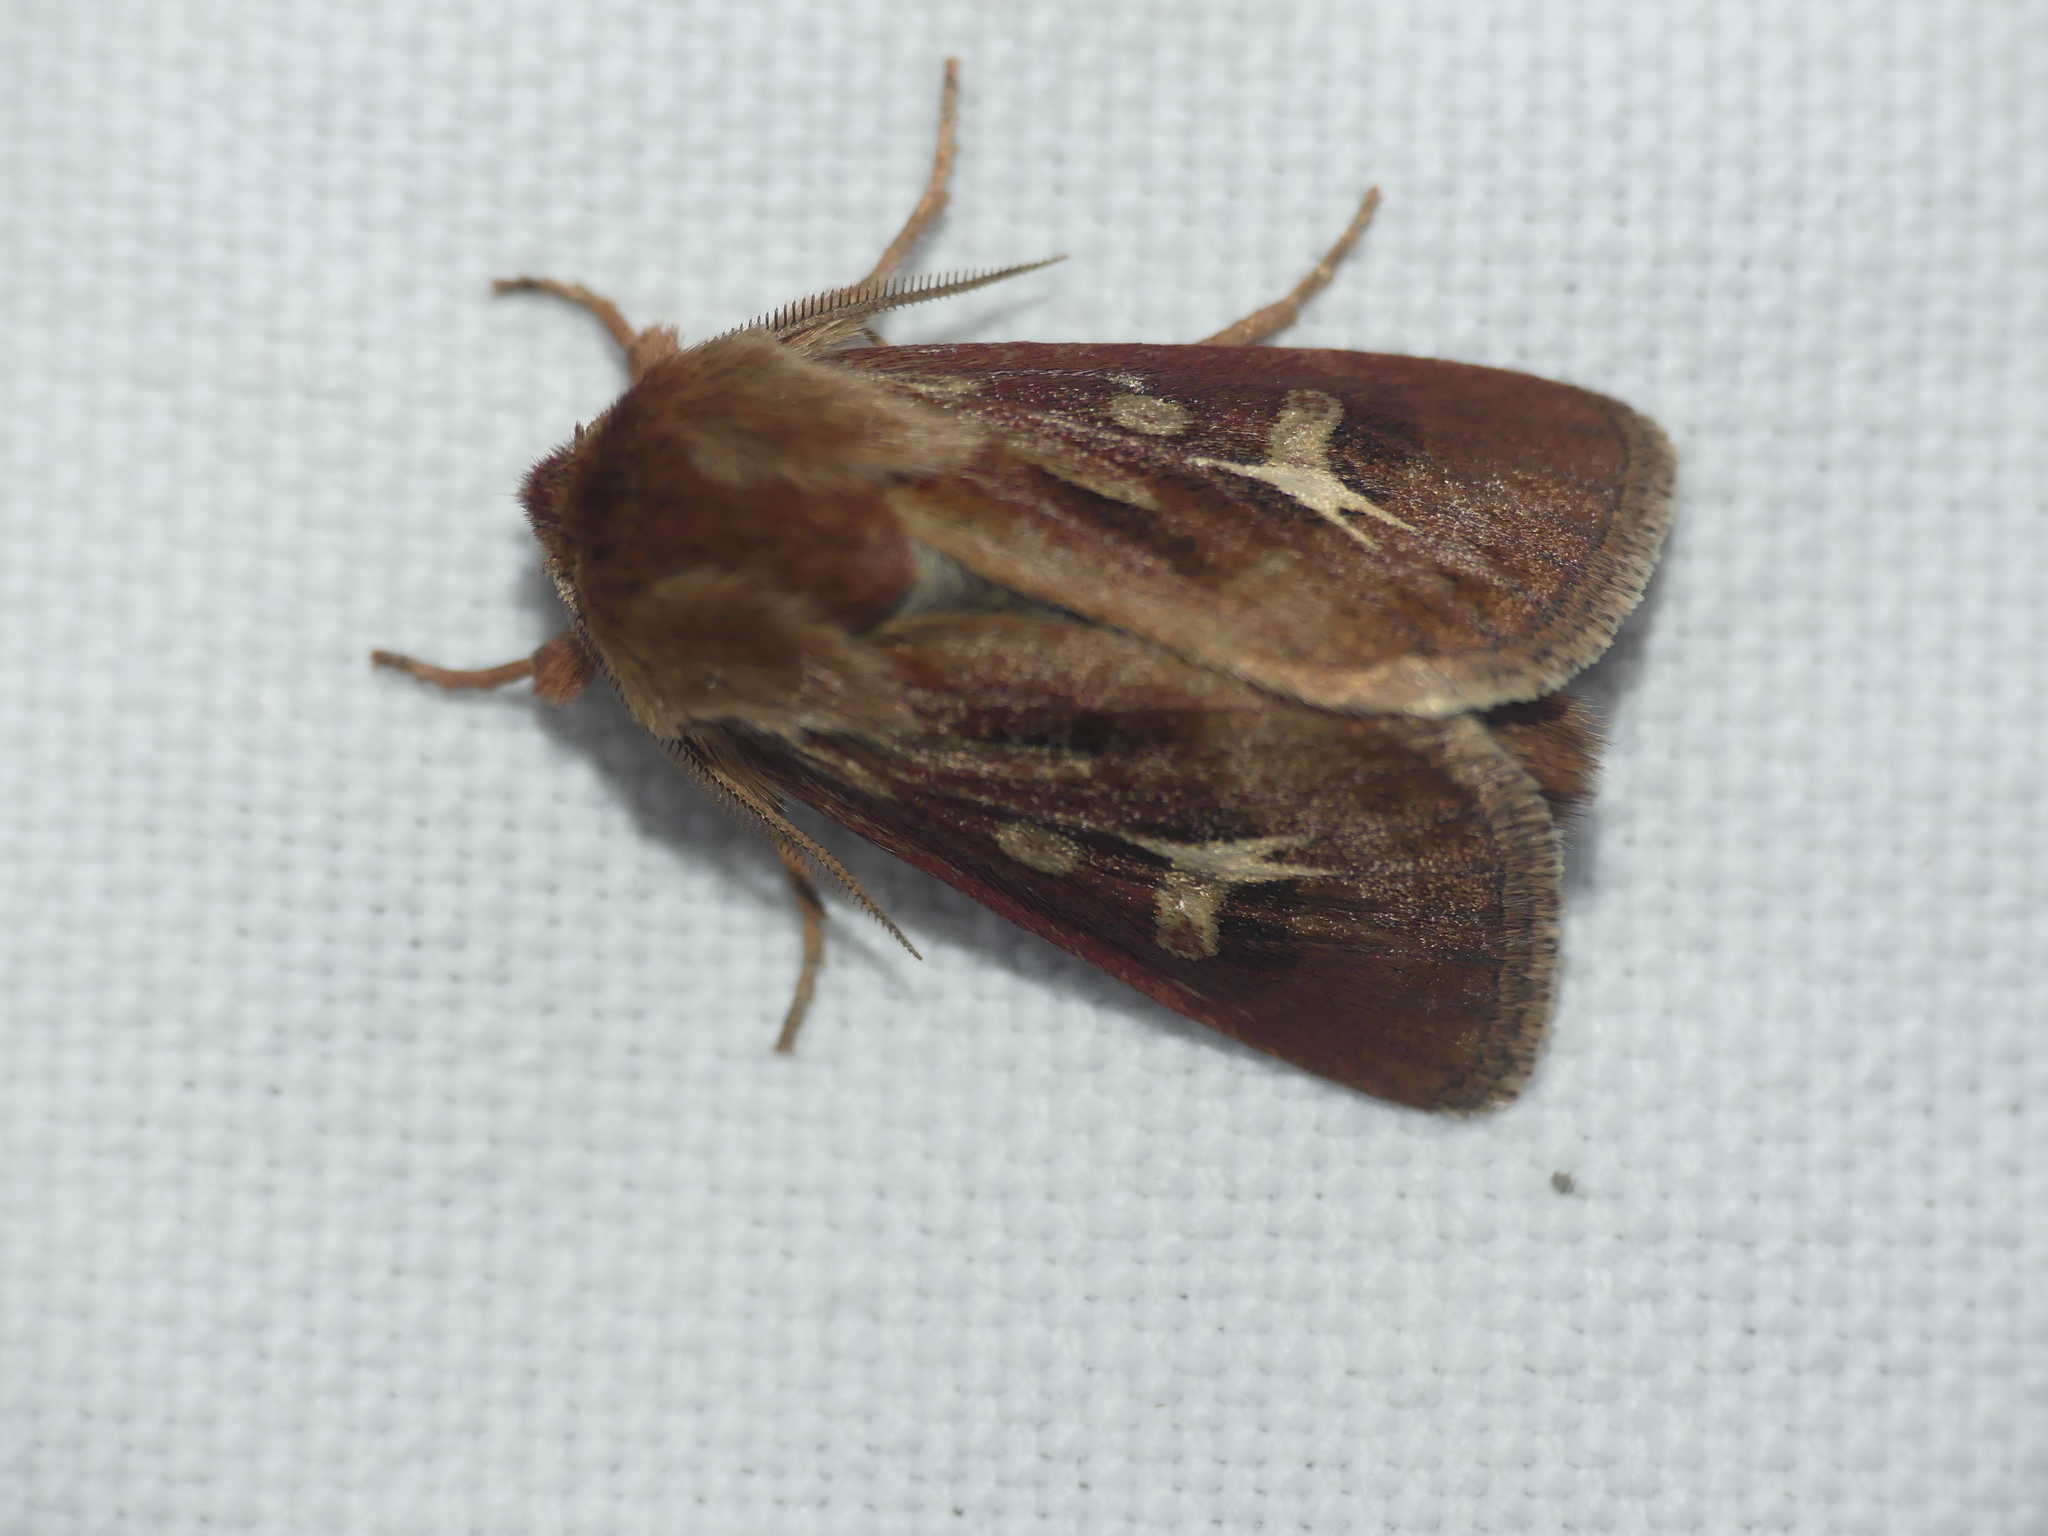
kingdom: Animalia
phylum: Arthropoda
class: Insecta
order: Lepidoptera
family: Noctuidae
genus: Cerapteryx
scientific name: Cerapteryx graminis
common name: Antler moth
